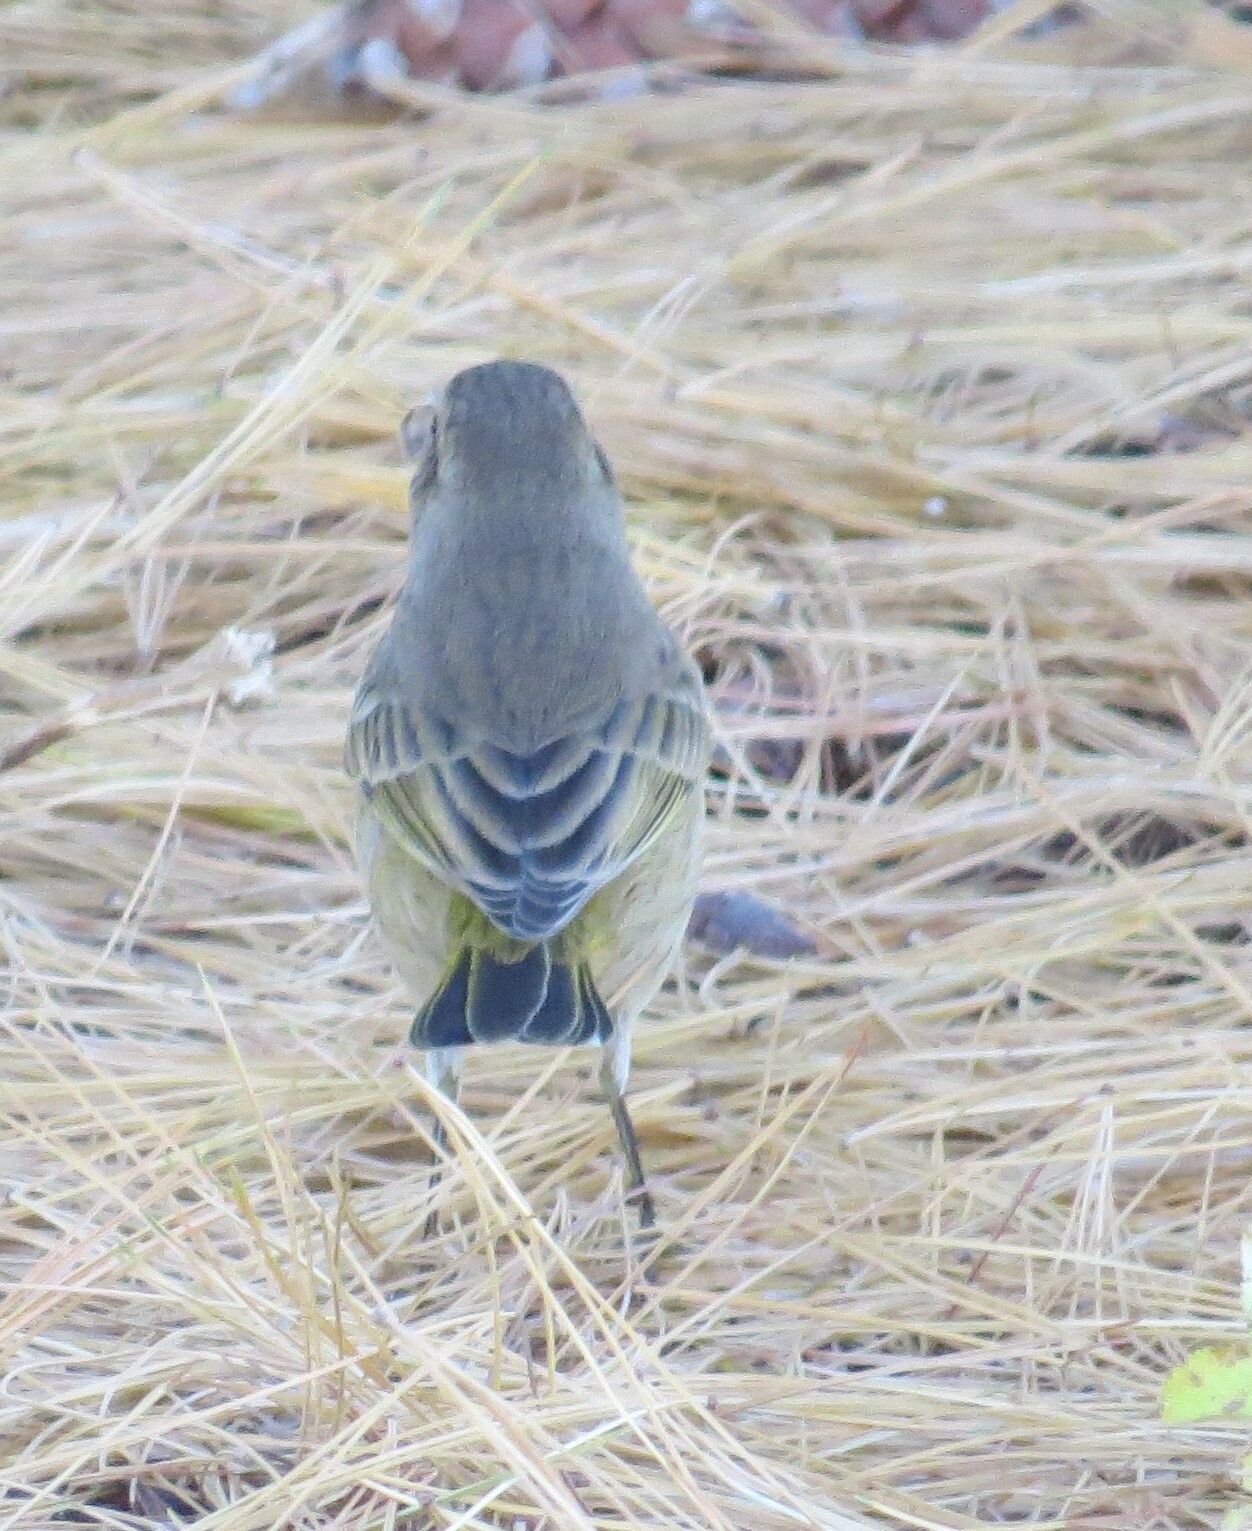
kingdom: Animalia
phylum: Chordata
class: Aves
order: Passeriformes
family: Parulidae
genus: Setophaga
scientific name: Setophaga palmarum
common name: Palm warbler
